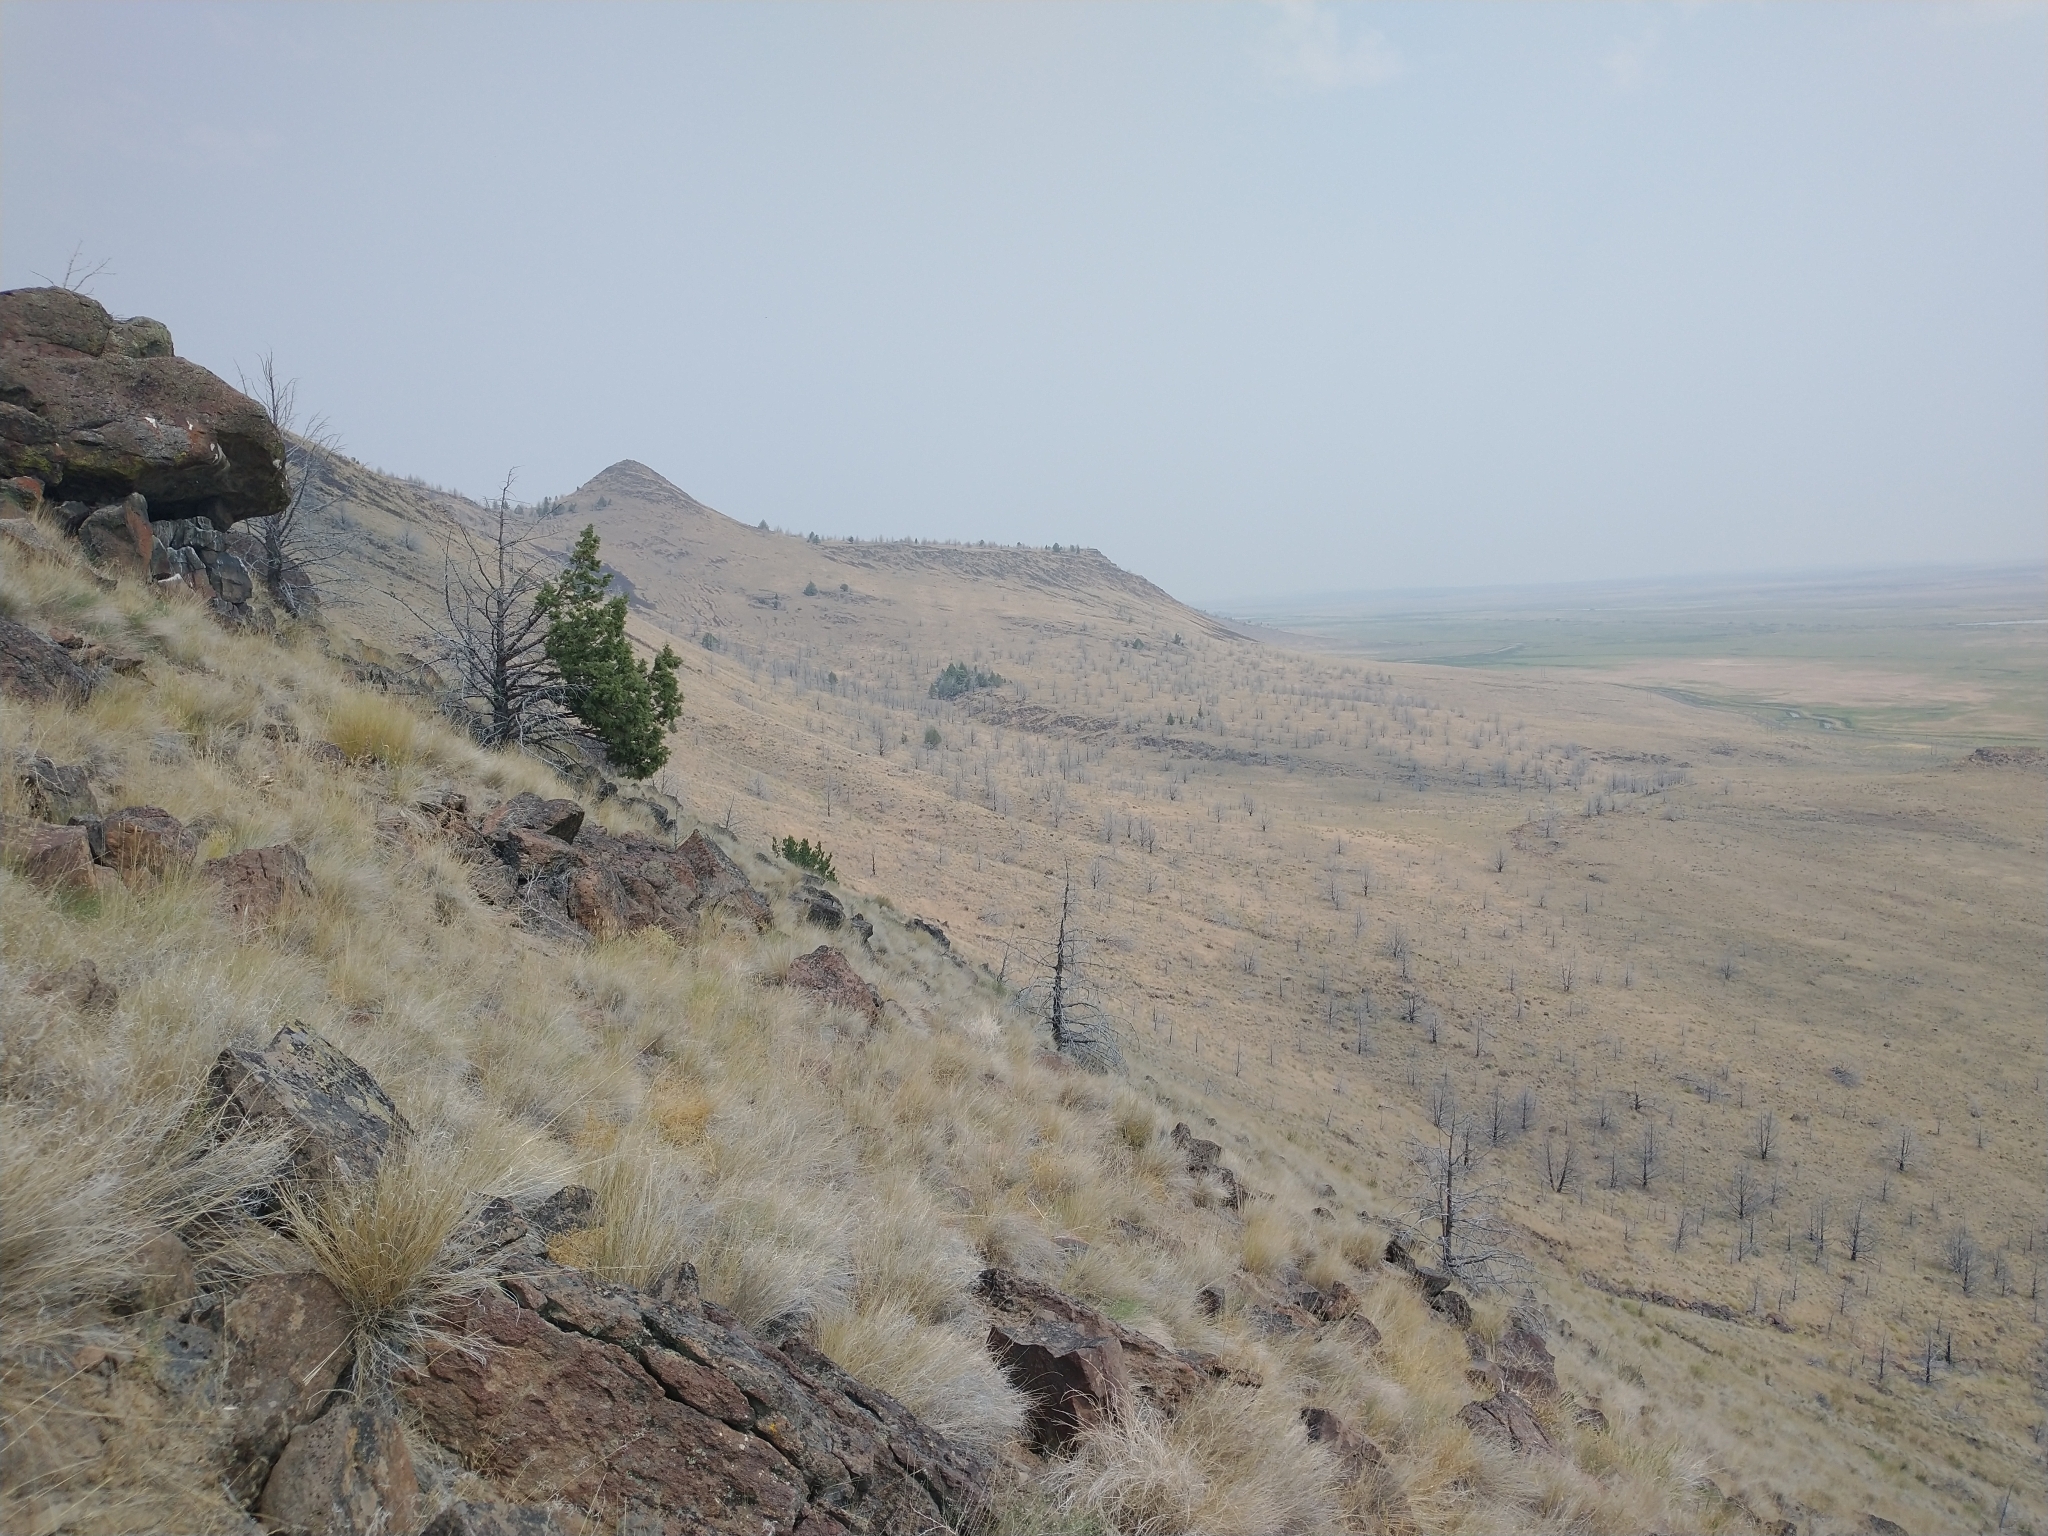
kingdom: Plantae
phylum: Tracheophyta
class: Pinopsida
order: Pinales
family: Cupressaceae
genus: Juniperus
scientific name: Juniperus occidentalis
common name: Western juniper
